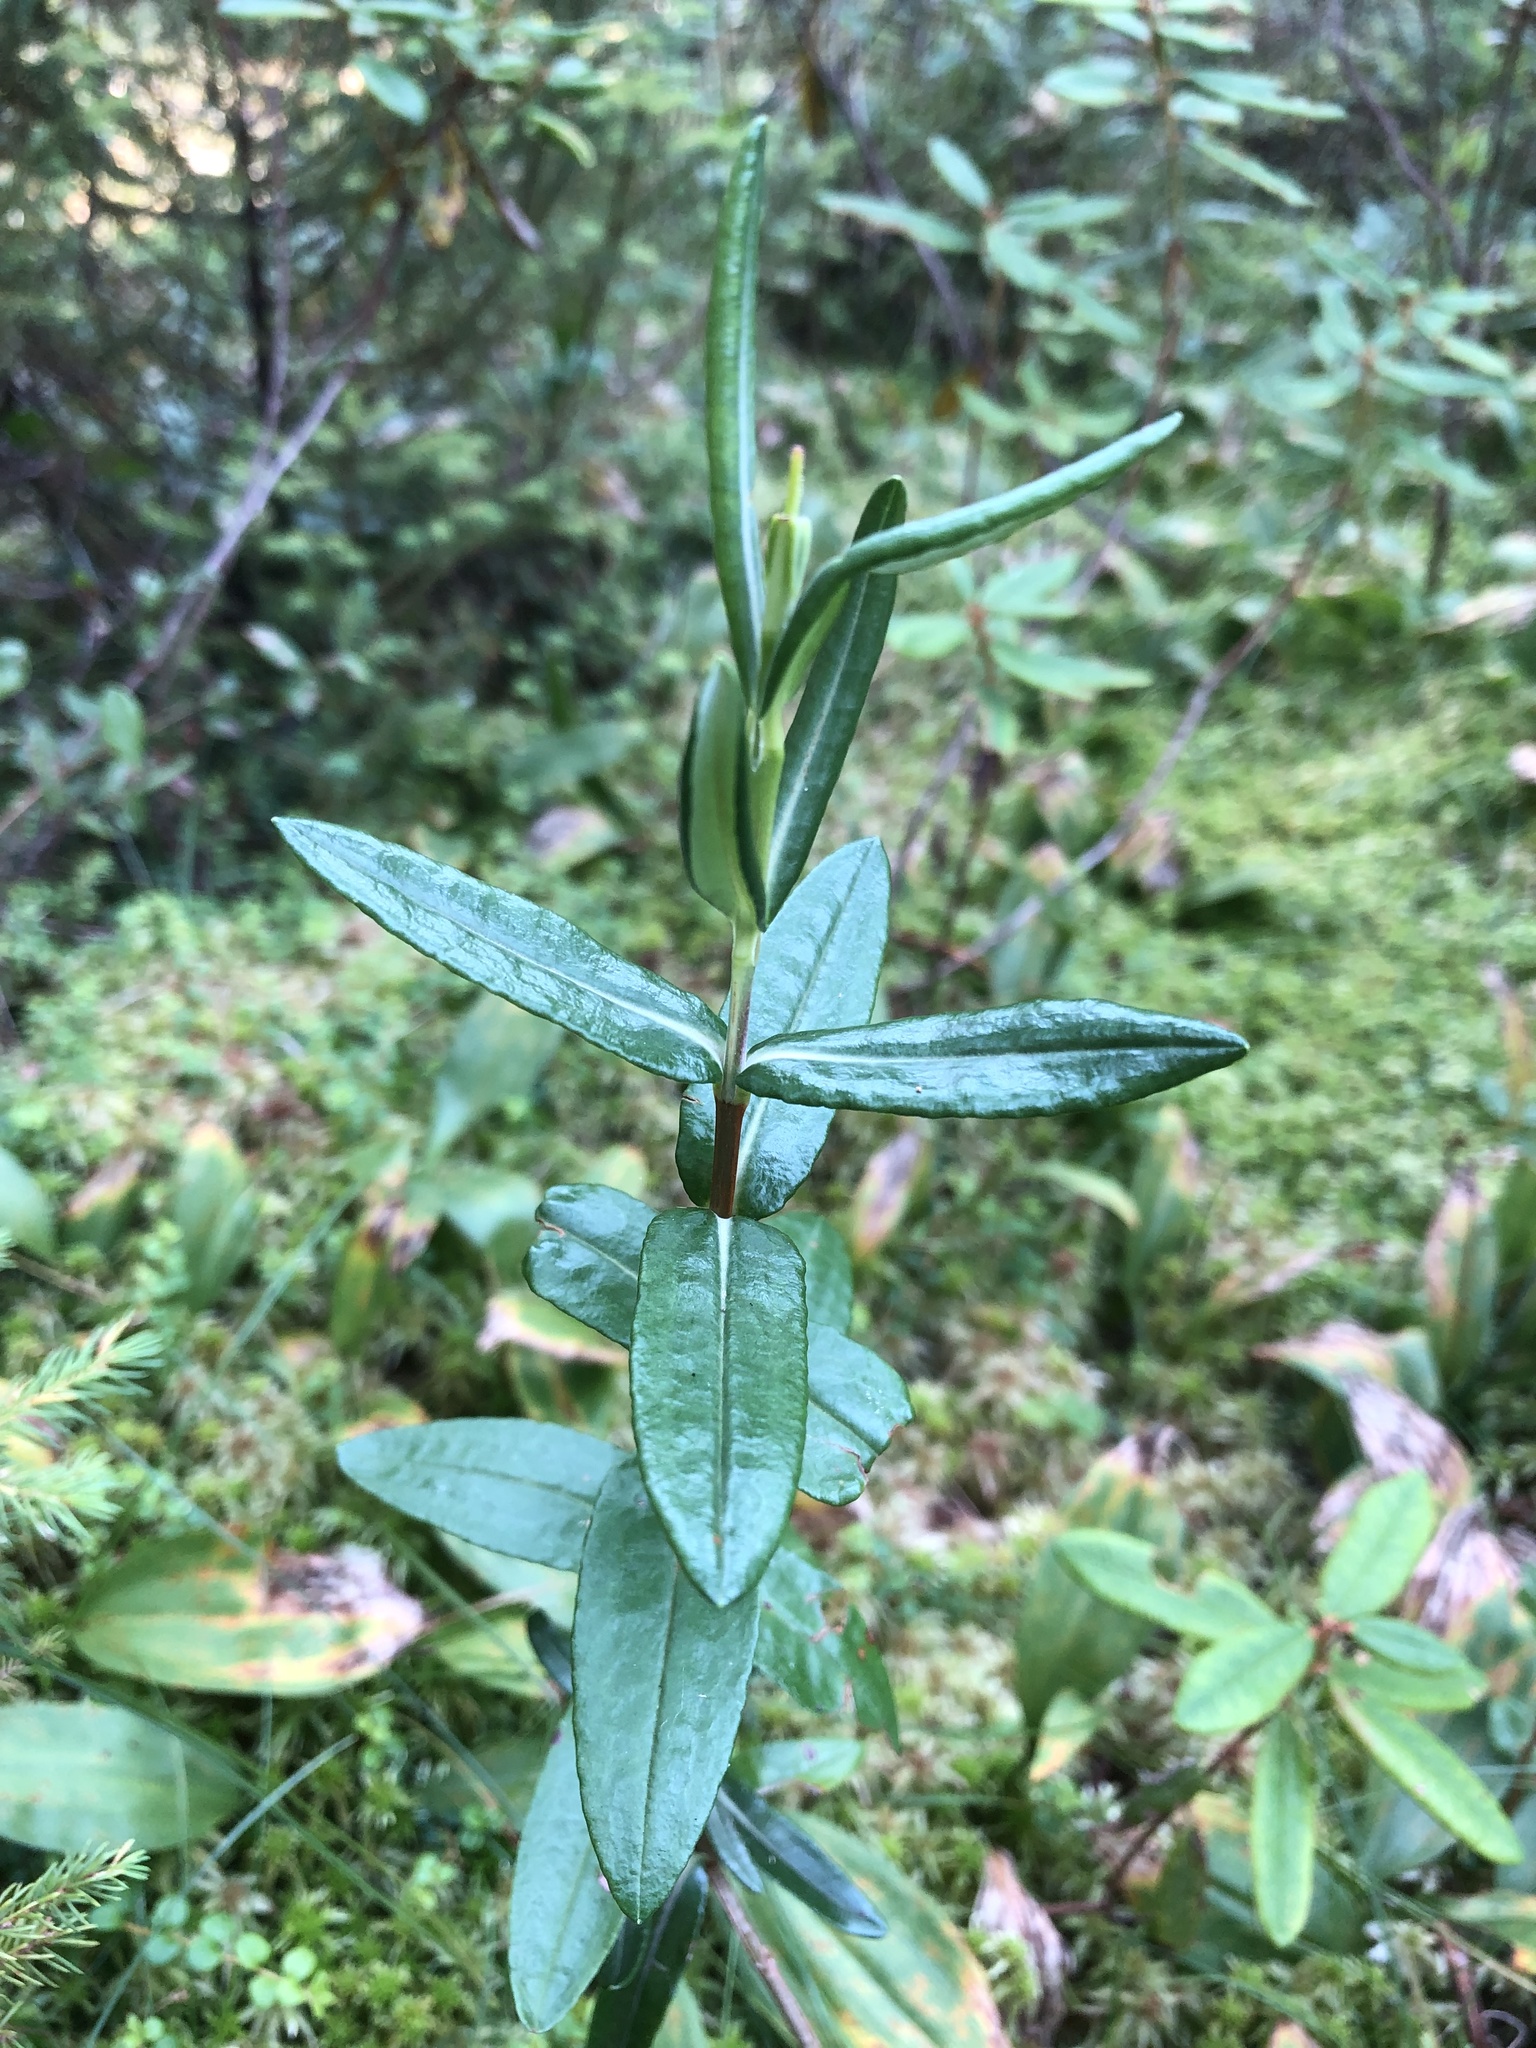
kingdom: Plantae
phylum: Tracheophyta
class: Magnoliopsida
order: Ericales
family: Ericaceae
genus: Kalmia
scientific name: Kalmia polifolia
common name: Bog-laurel
